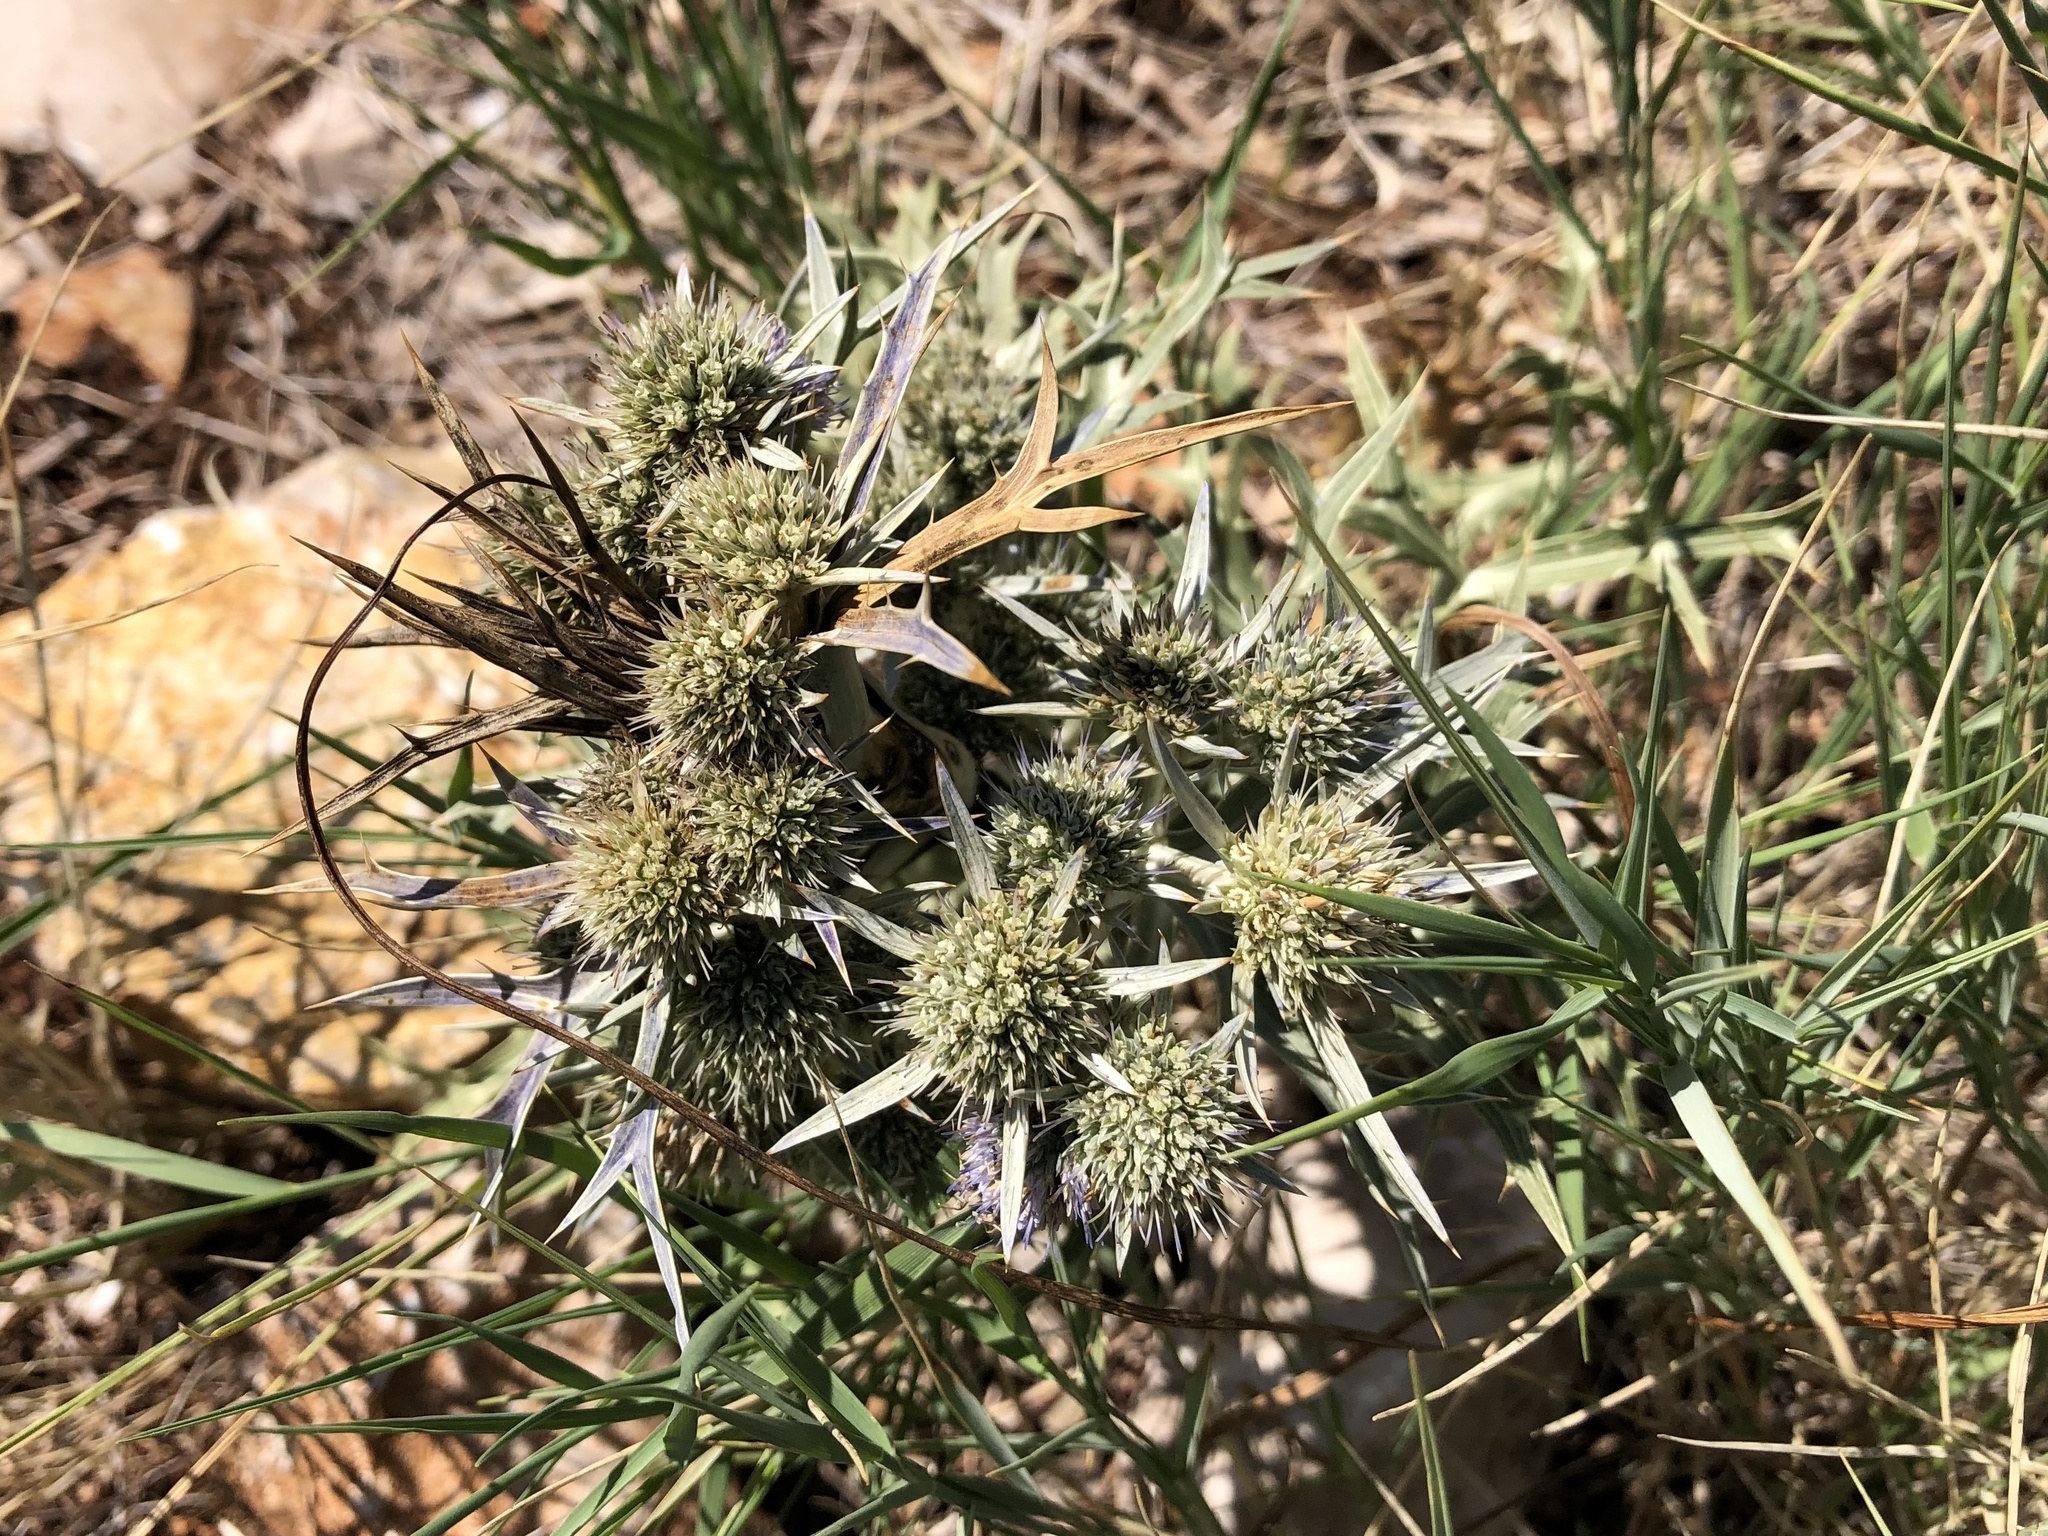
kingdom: Plantae
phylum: Tracheophyta
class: Magnoliopsida
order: Apiales
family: Apiaceae
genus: Eryngium
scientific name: Eryngium amethystinum
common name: Amethyst eryngo
